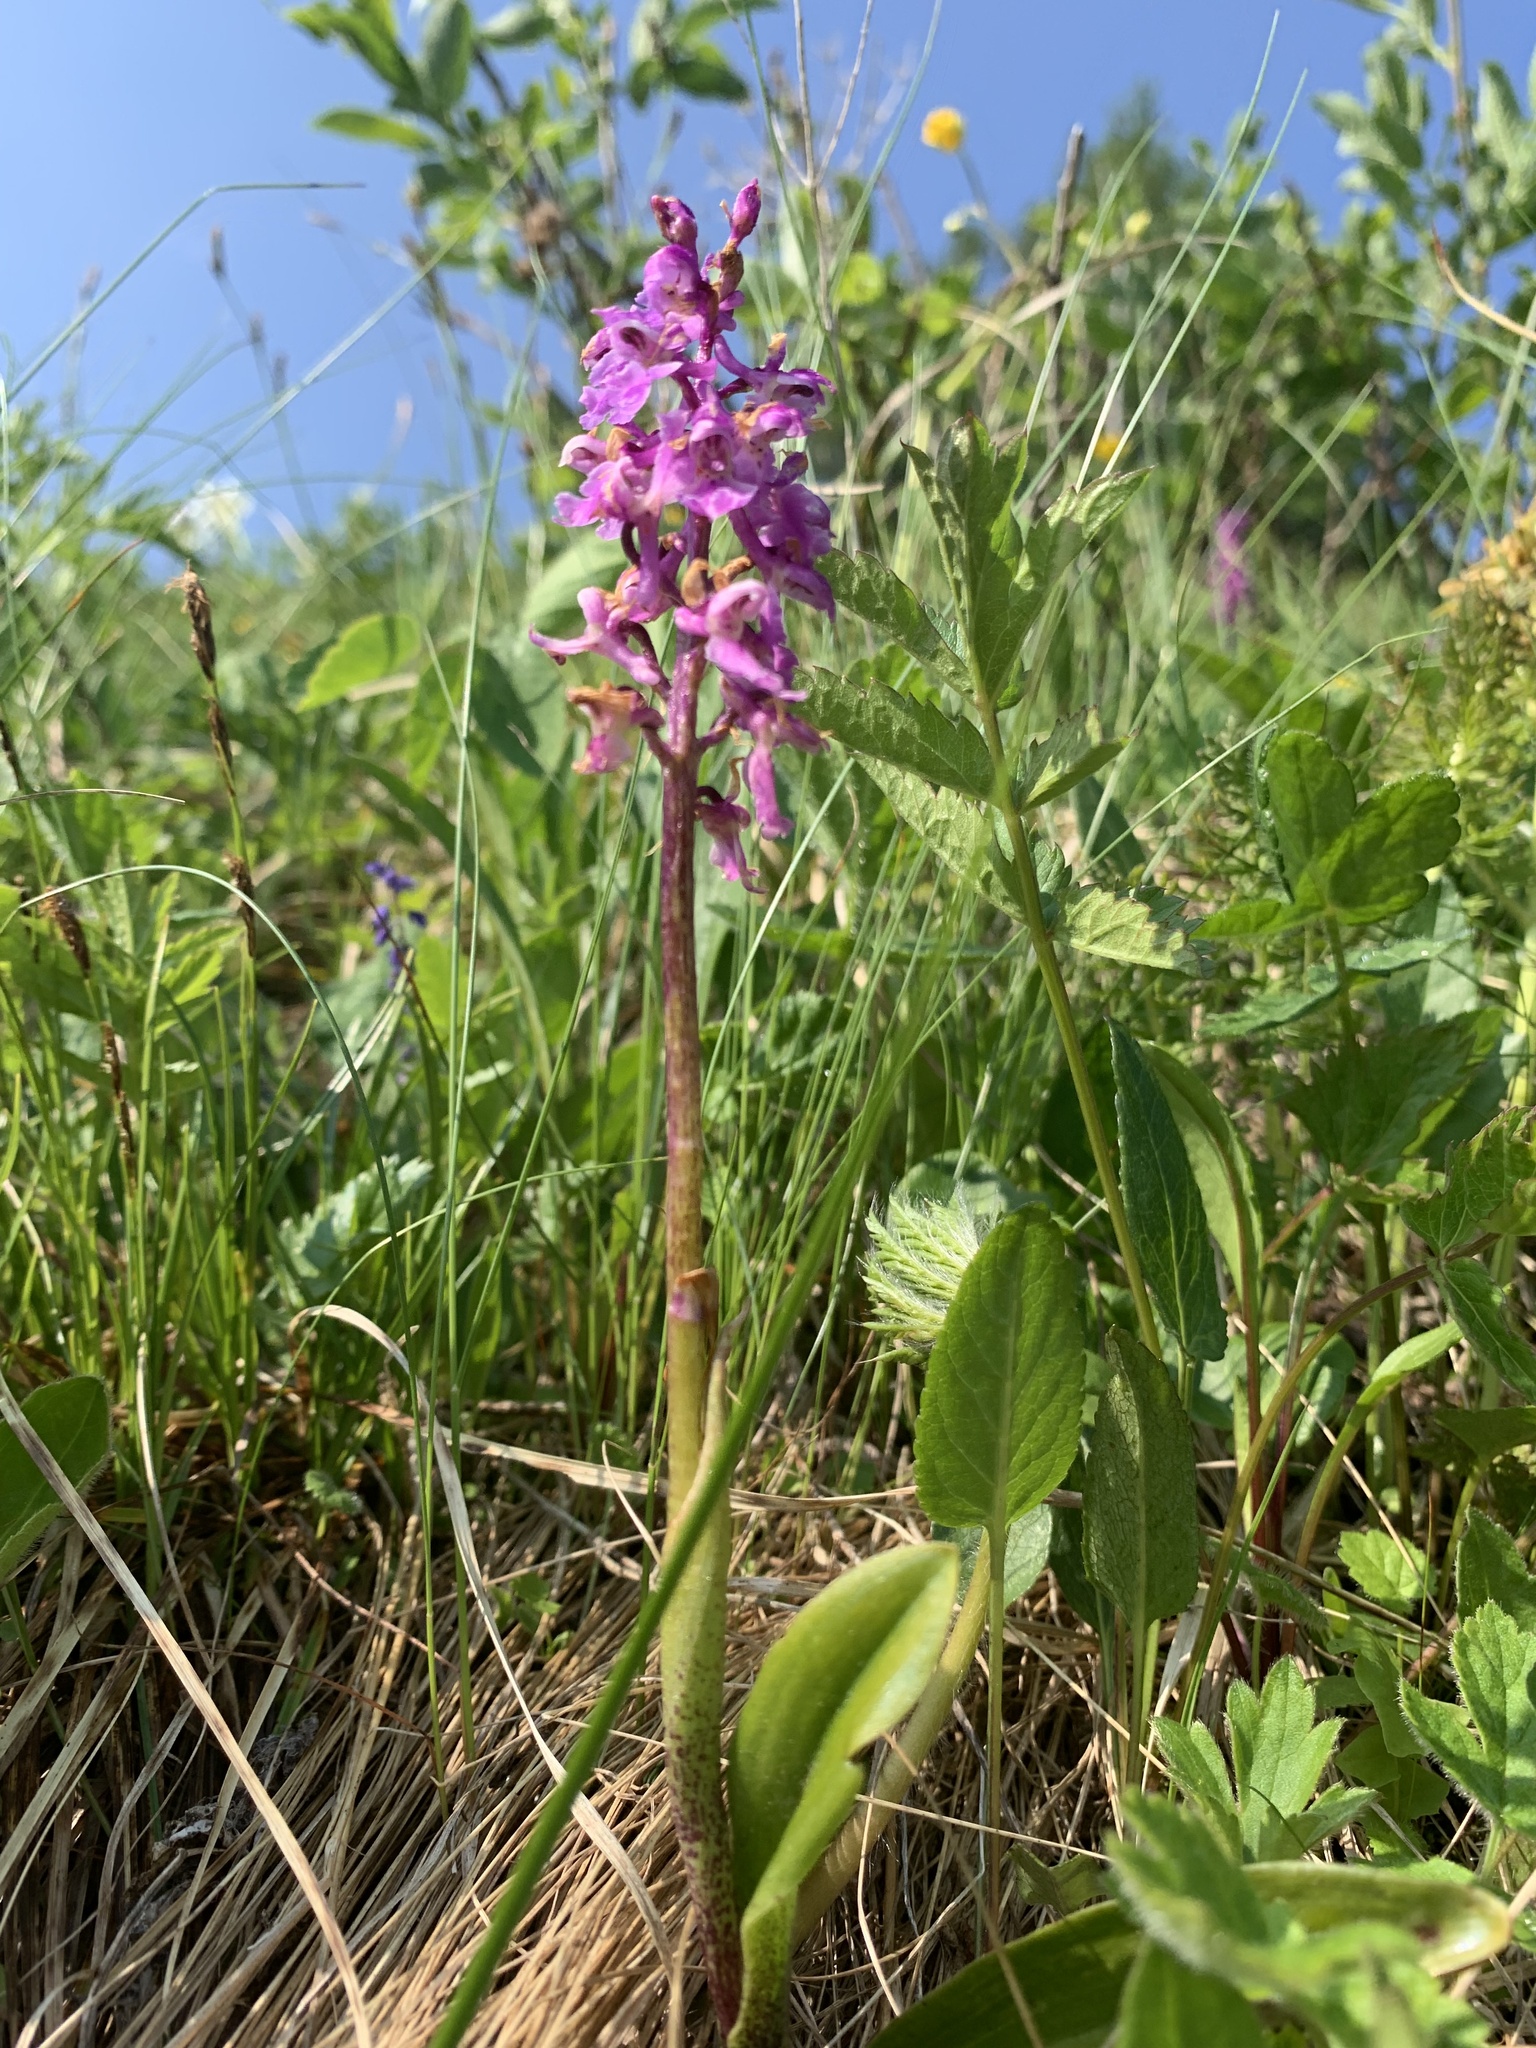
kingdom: Plantae
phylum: Tracheophyta
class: Liliopsida
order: Asparagales
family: Orchidaceae
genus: Orchis
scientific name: Orchis mascula
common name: Early-purple orchid
